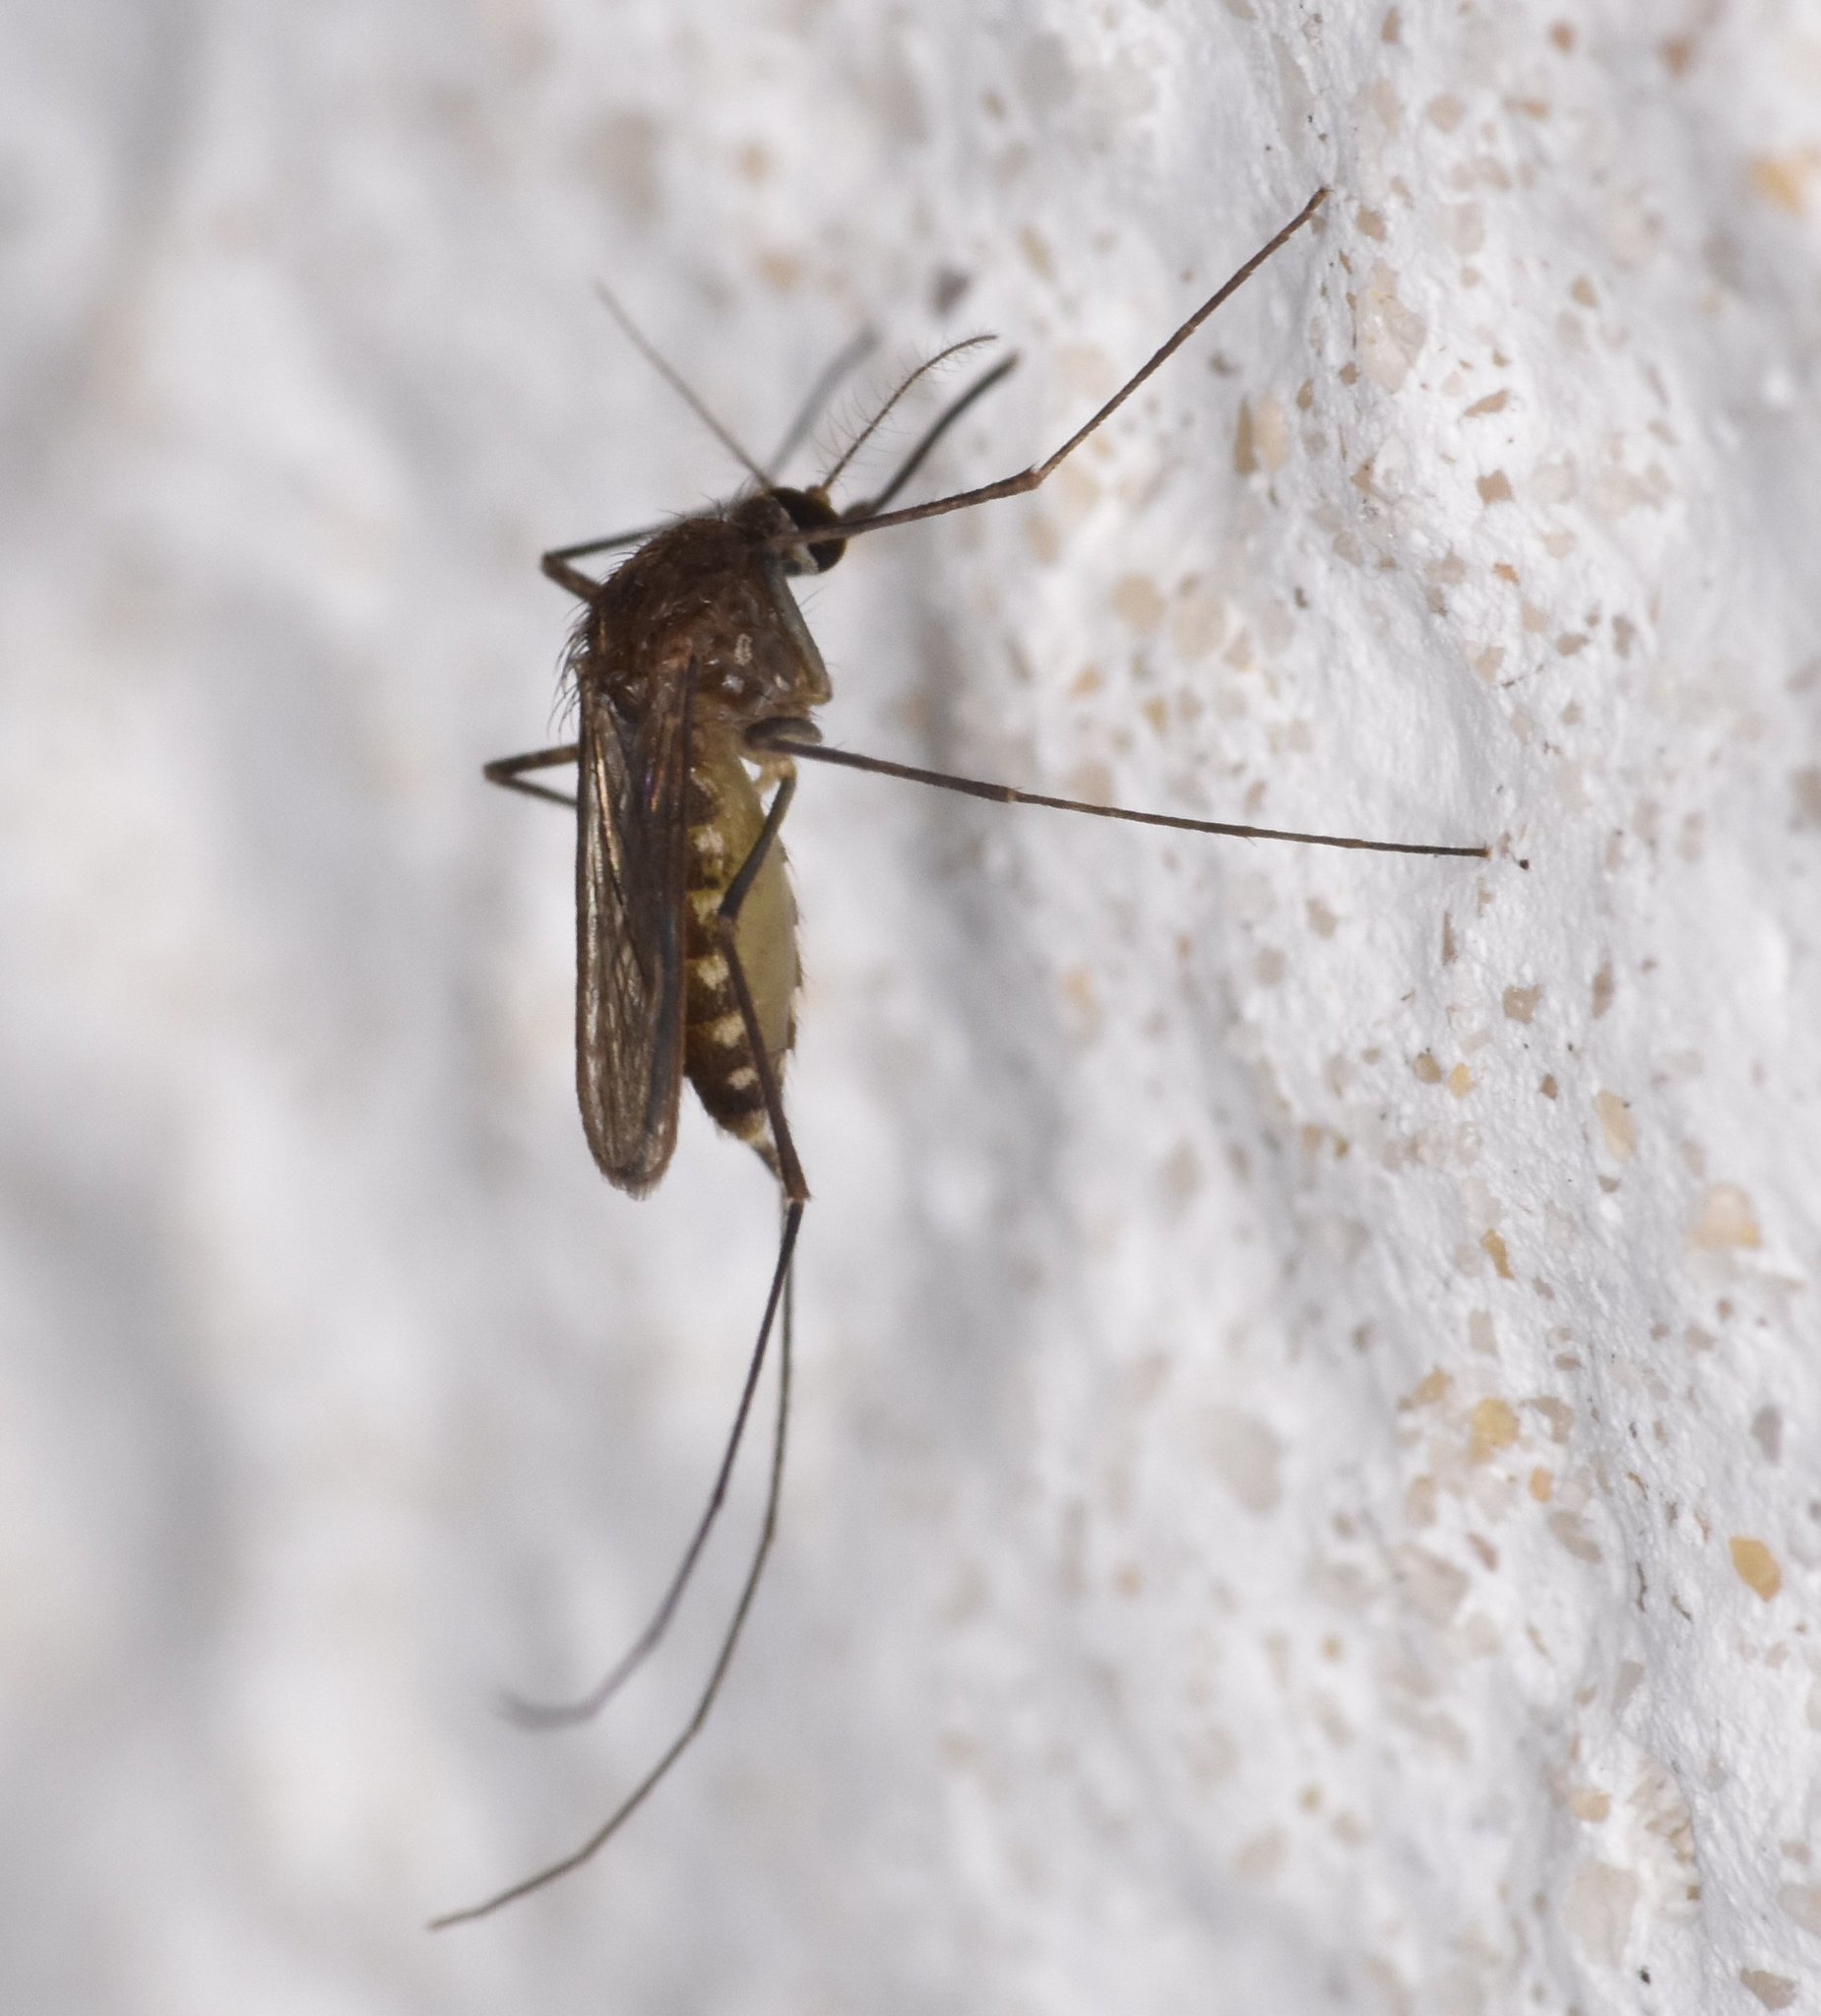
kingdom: Animalia
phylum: Arthropoda
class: Insecta
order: Diptera
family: Culicidae
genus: Culex
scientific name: Culex erraticus
